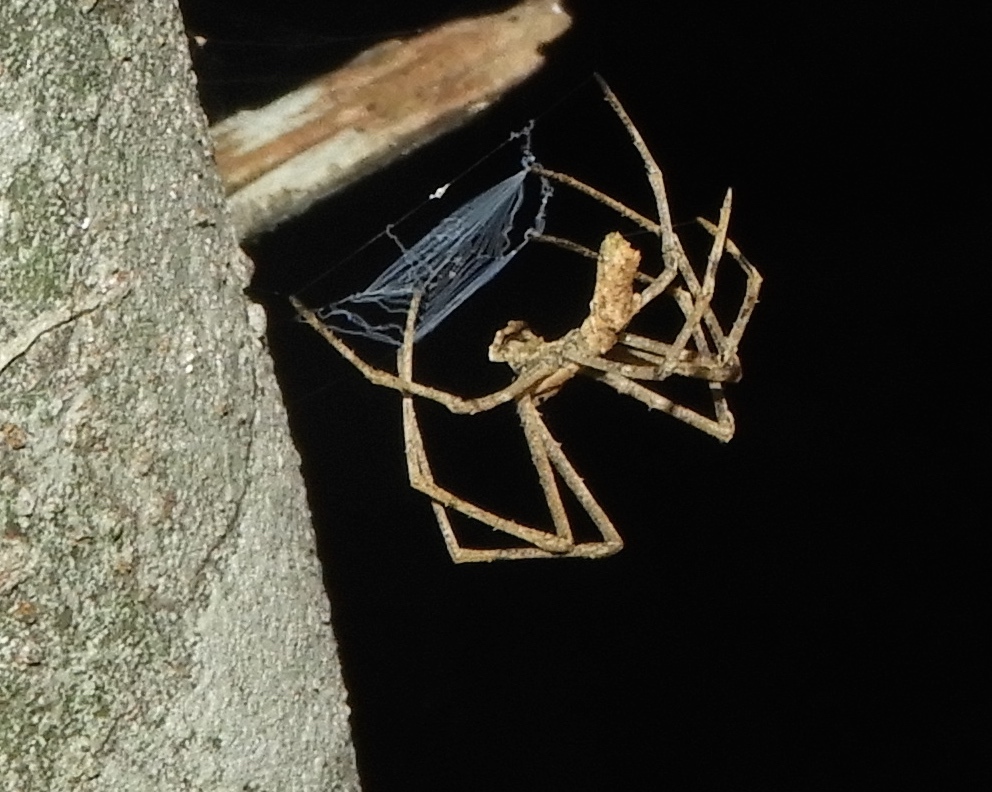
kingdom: Animalia
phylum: Arthropoda
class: Arachnida
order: Araneae
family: Deinopidae
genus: Deinopis
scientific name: Deinopis aurita
